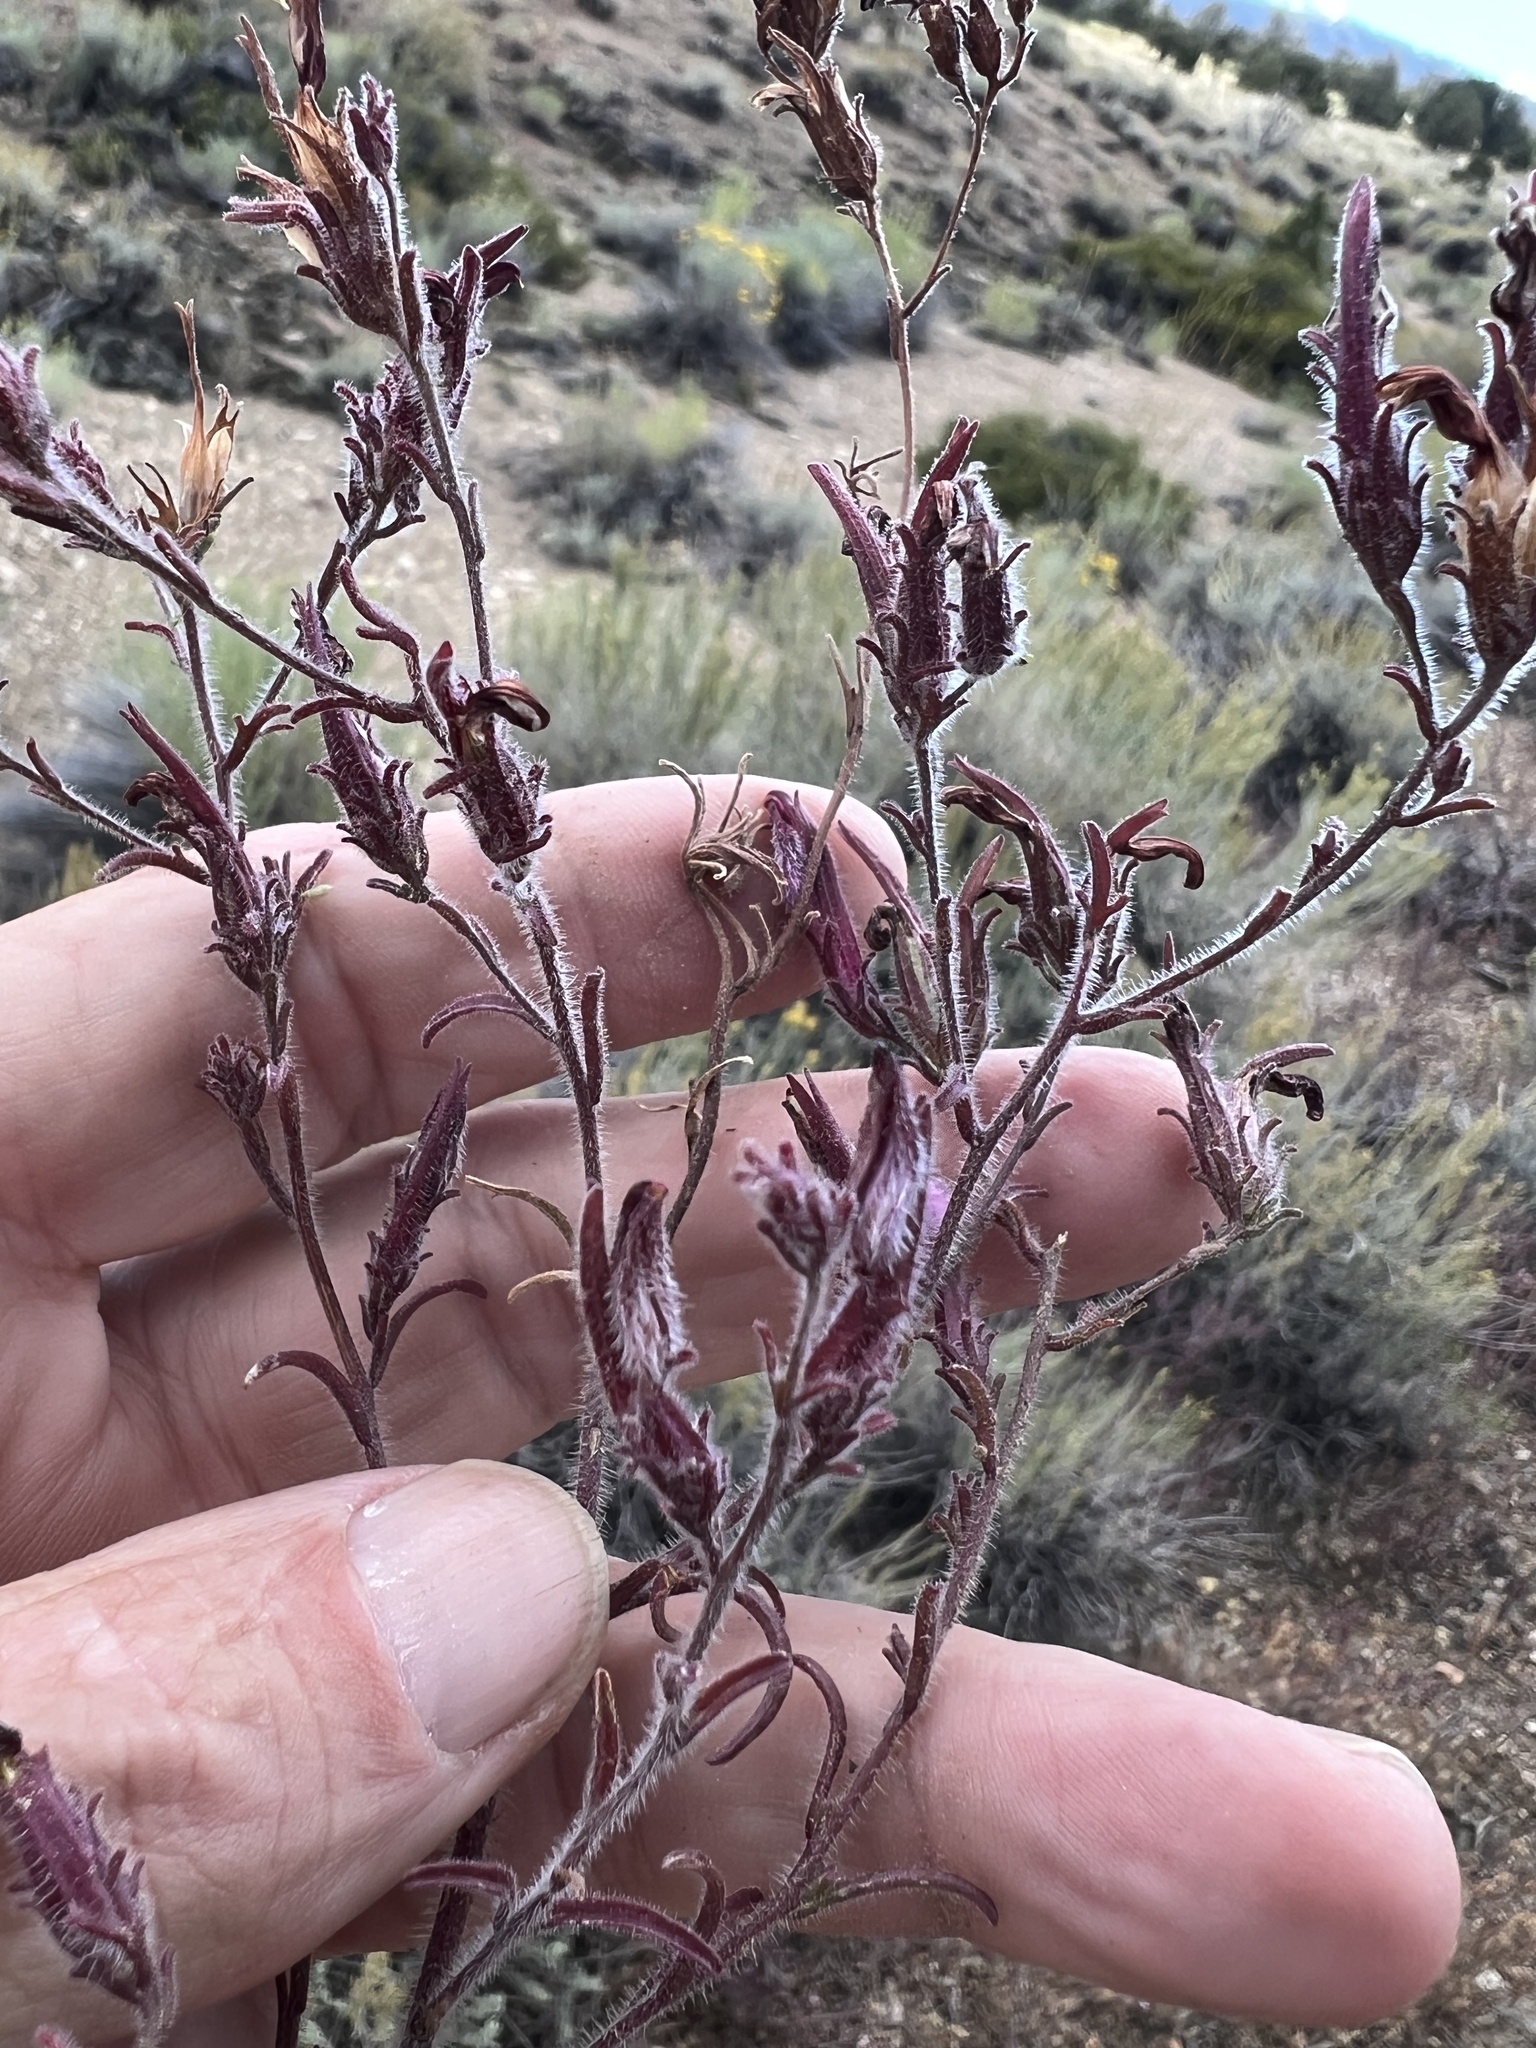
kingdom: Plantae
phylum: Tracheophyta
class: Magnoliopsida
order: Lamiales
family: Orobanchaceae
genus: Cordylanthus
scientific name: Cordylanthus kingii
